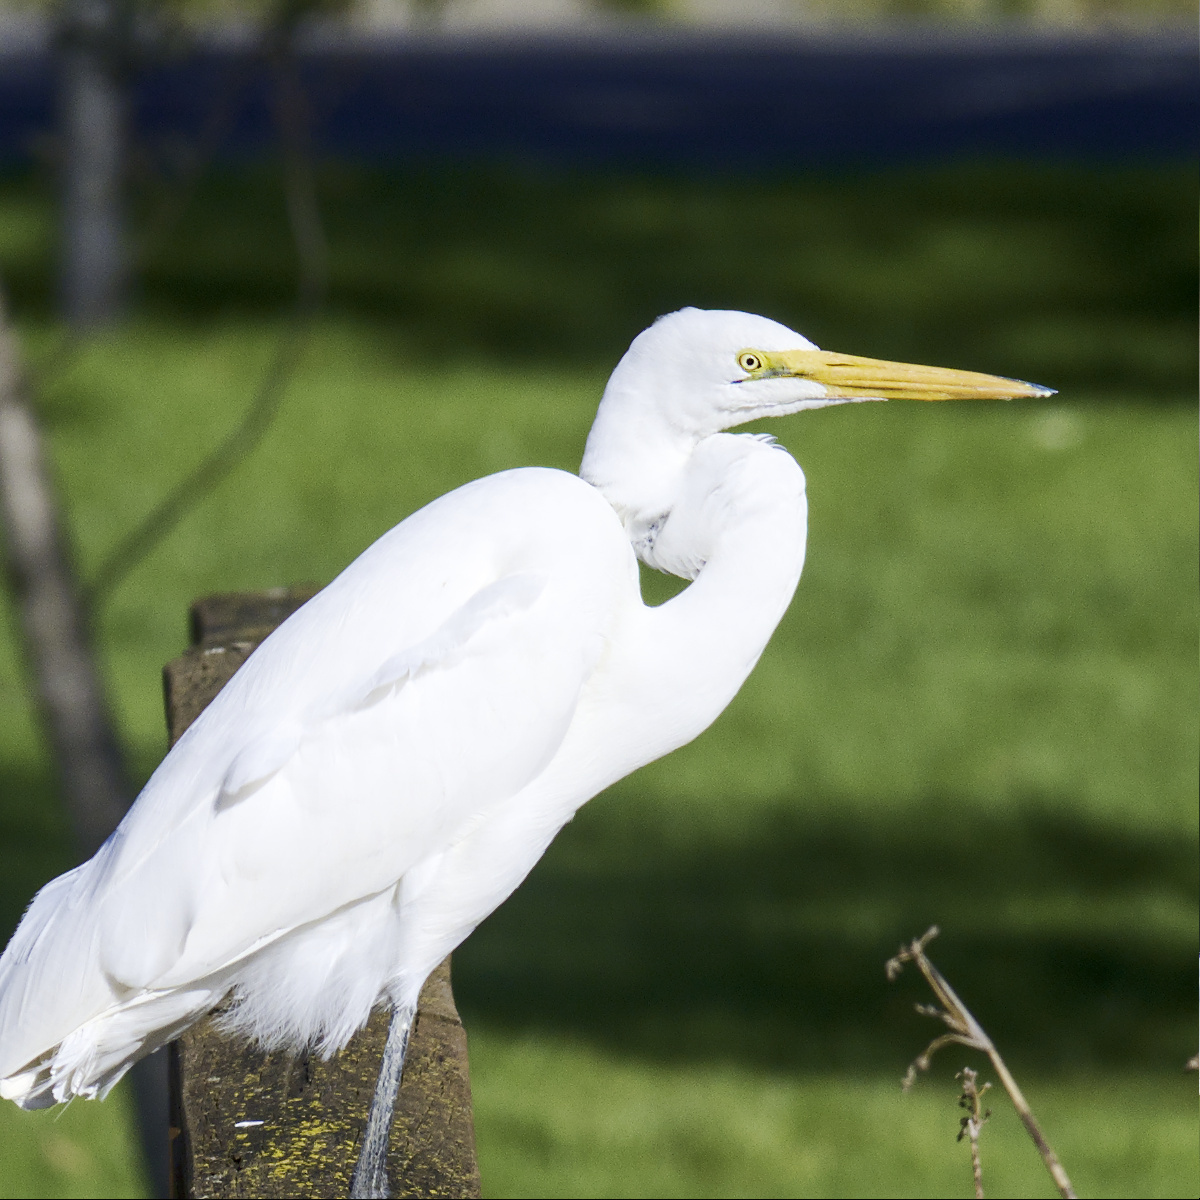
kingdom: Animalia
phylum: Chordata
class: Aves
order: Pelecaniformes
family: Ardeidae
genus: Ardea
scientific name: Ardea alba
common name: Great egret
